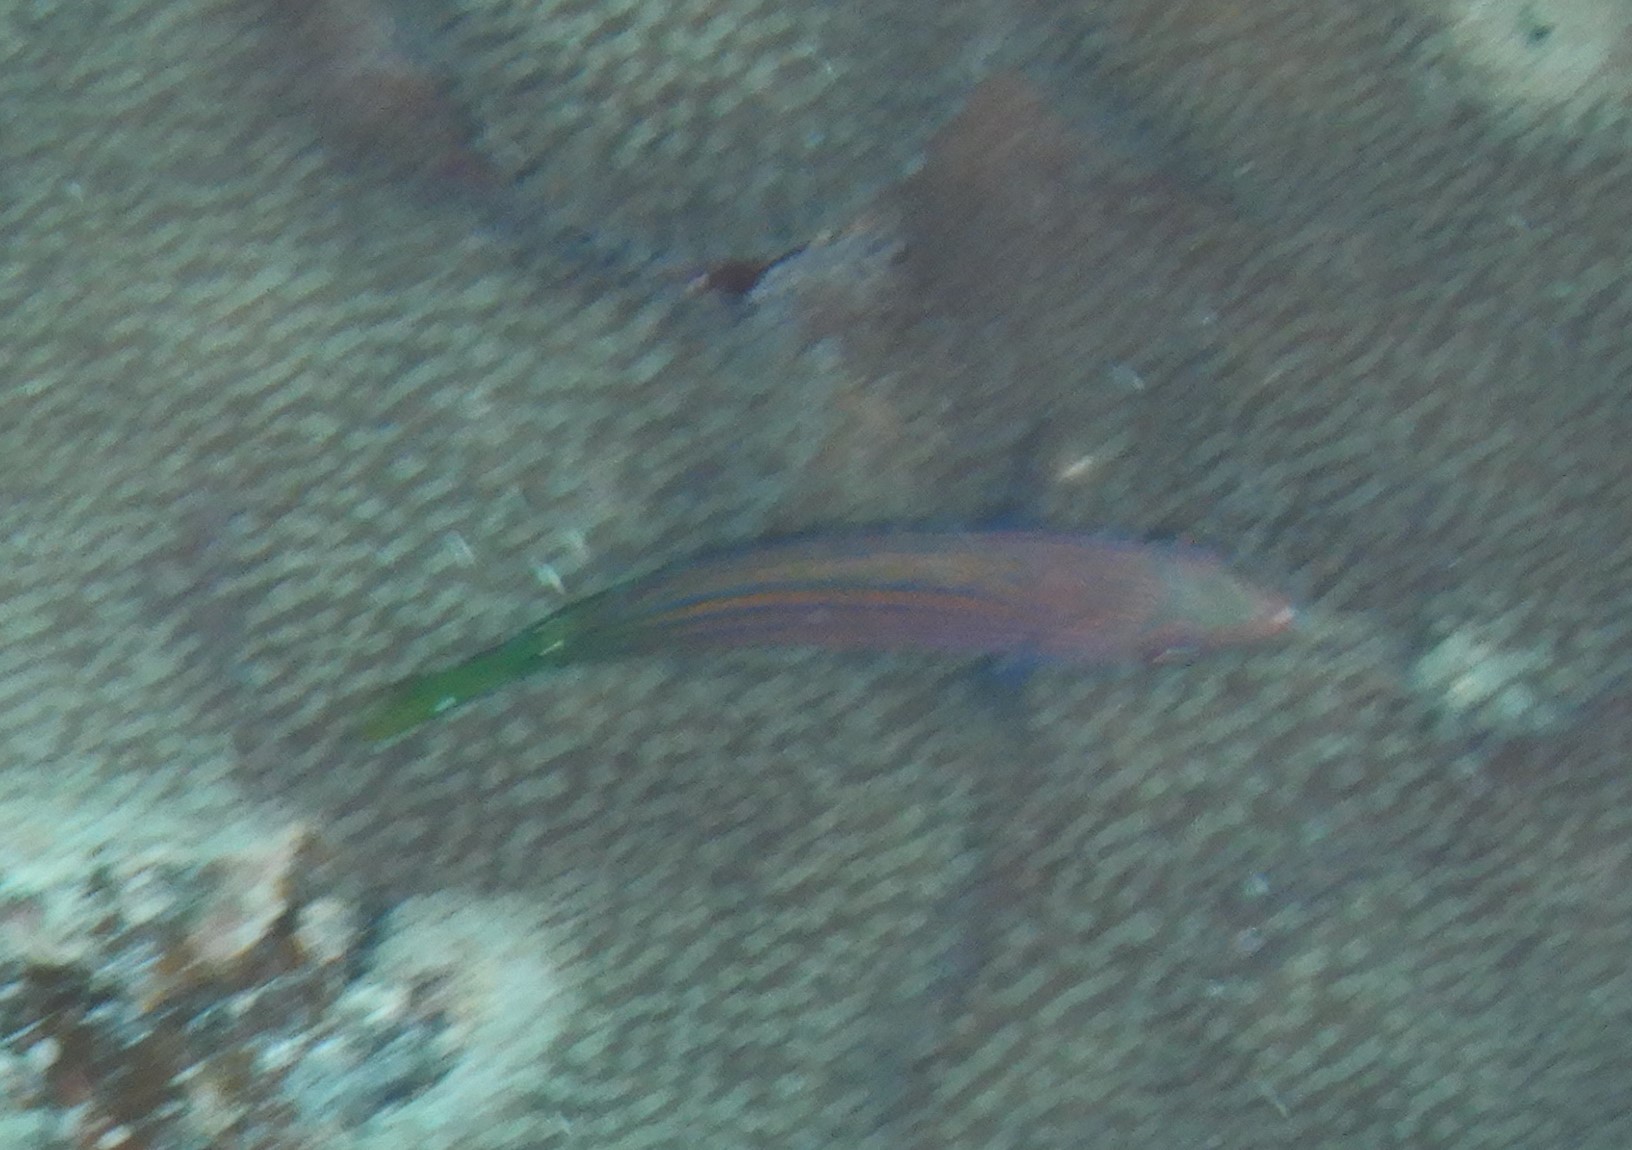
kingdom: Animalia
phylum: Chordata
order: Perciformes
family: Labridae
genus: Pseudocheilinus
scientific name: Pseudocheilinus hexataenia
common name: Sixline wrasse
